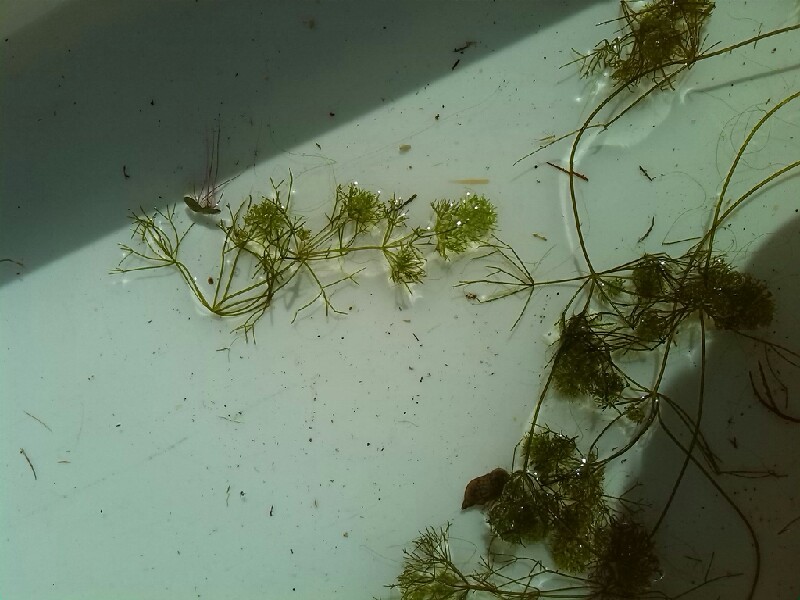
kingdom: Plantae
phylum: Charophyta
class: Charophyceae
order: Charales
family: Characeae
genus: Nitella
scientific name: Nitella mucronata
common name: Compact stonewort
